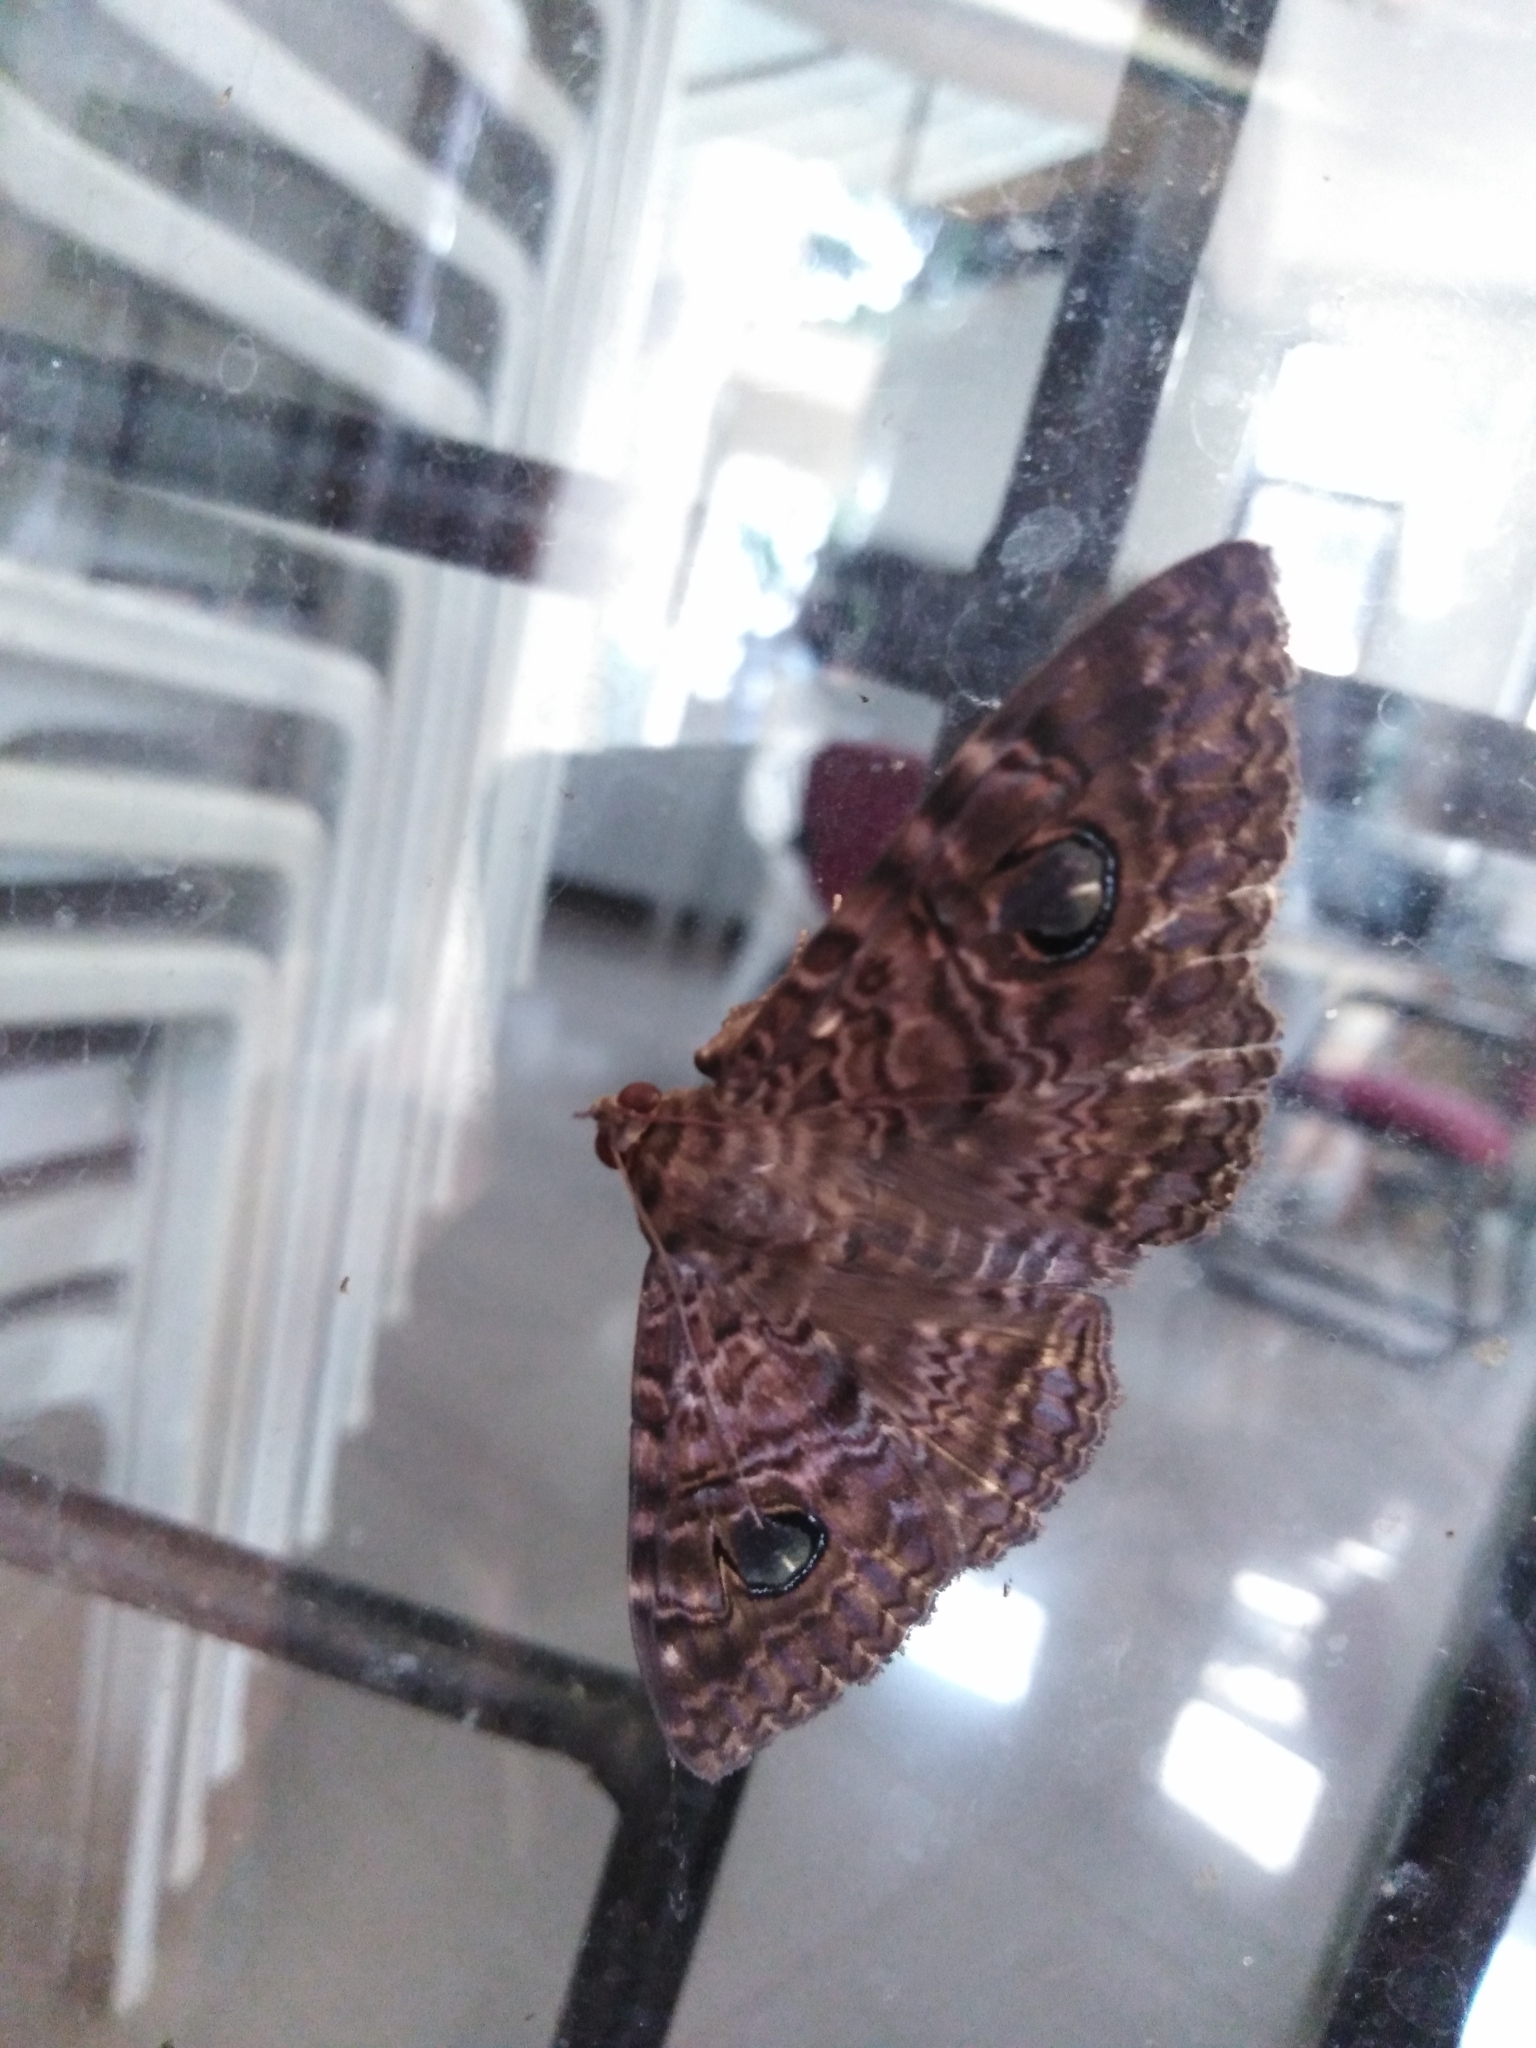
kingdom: Animalia
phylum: Arthropoda
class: Insecta
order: Lepidoptera
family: Erebidae
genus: Speiredonia
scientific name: Speiredonia obscura
